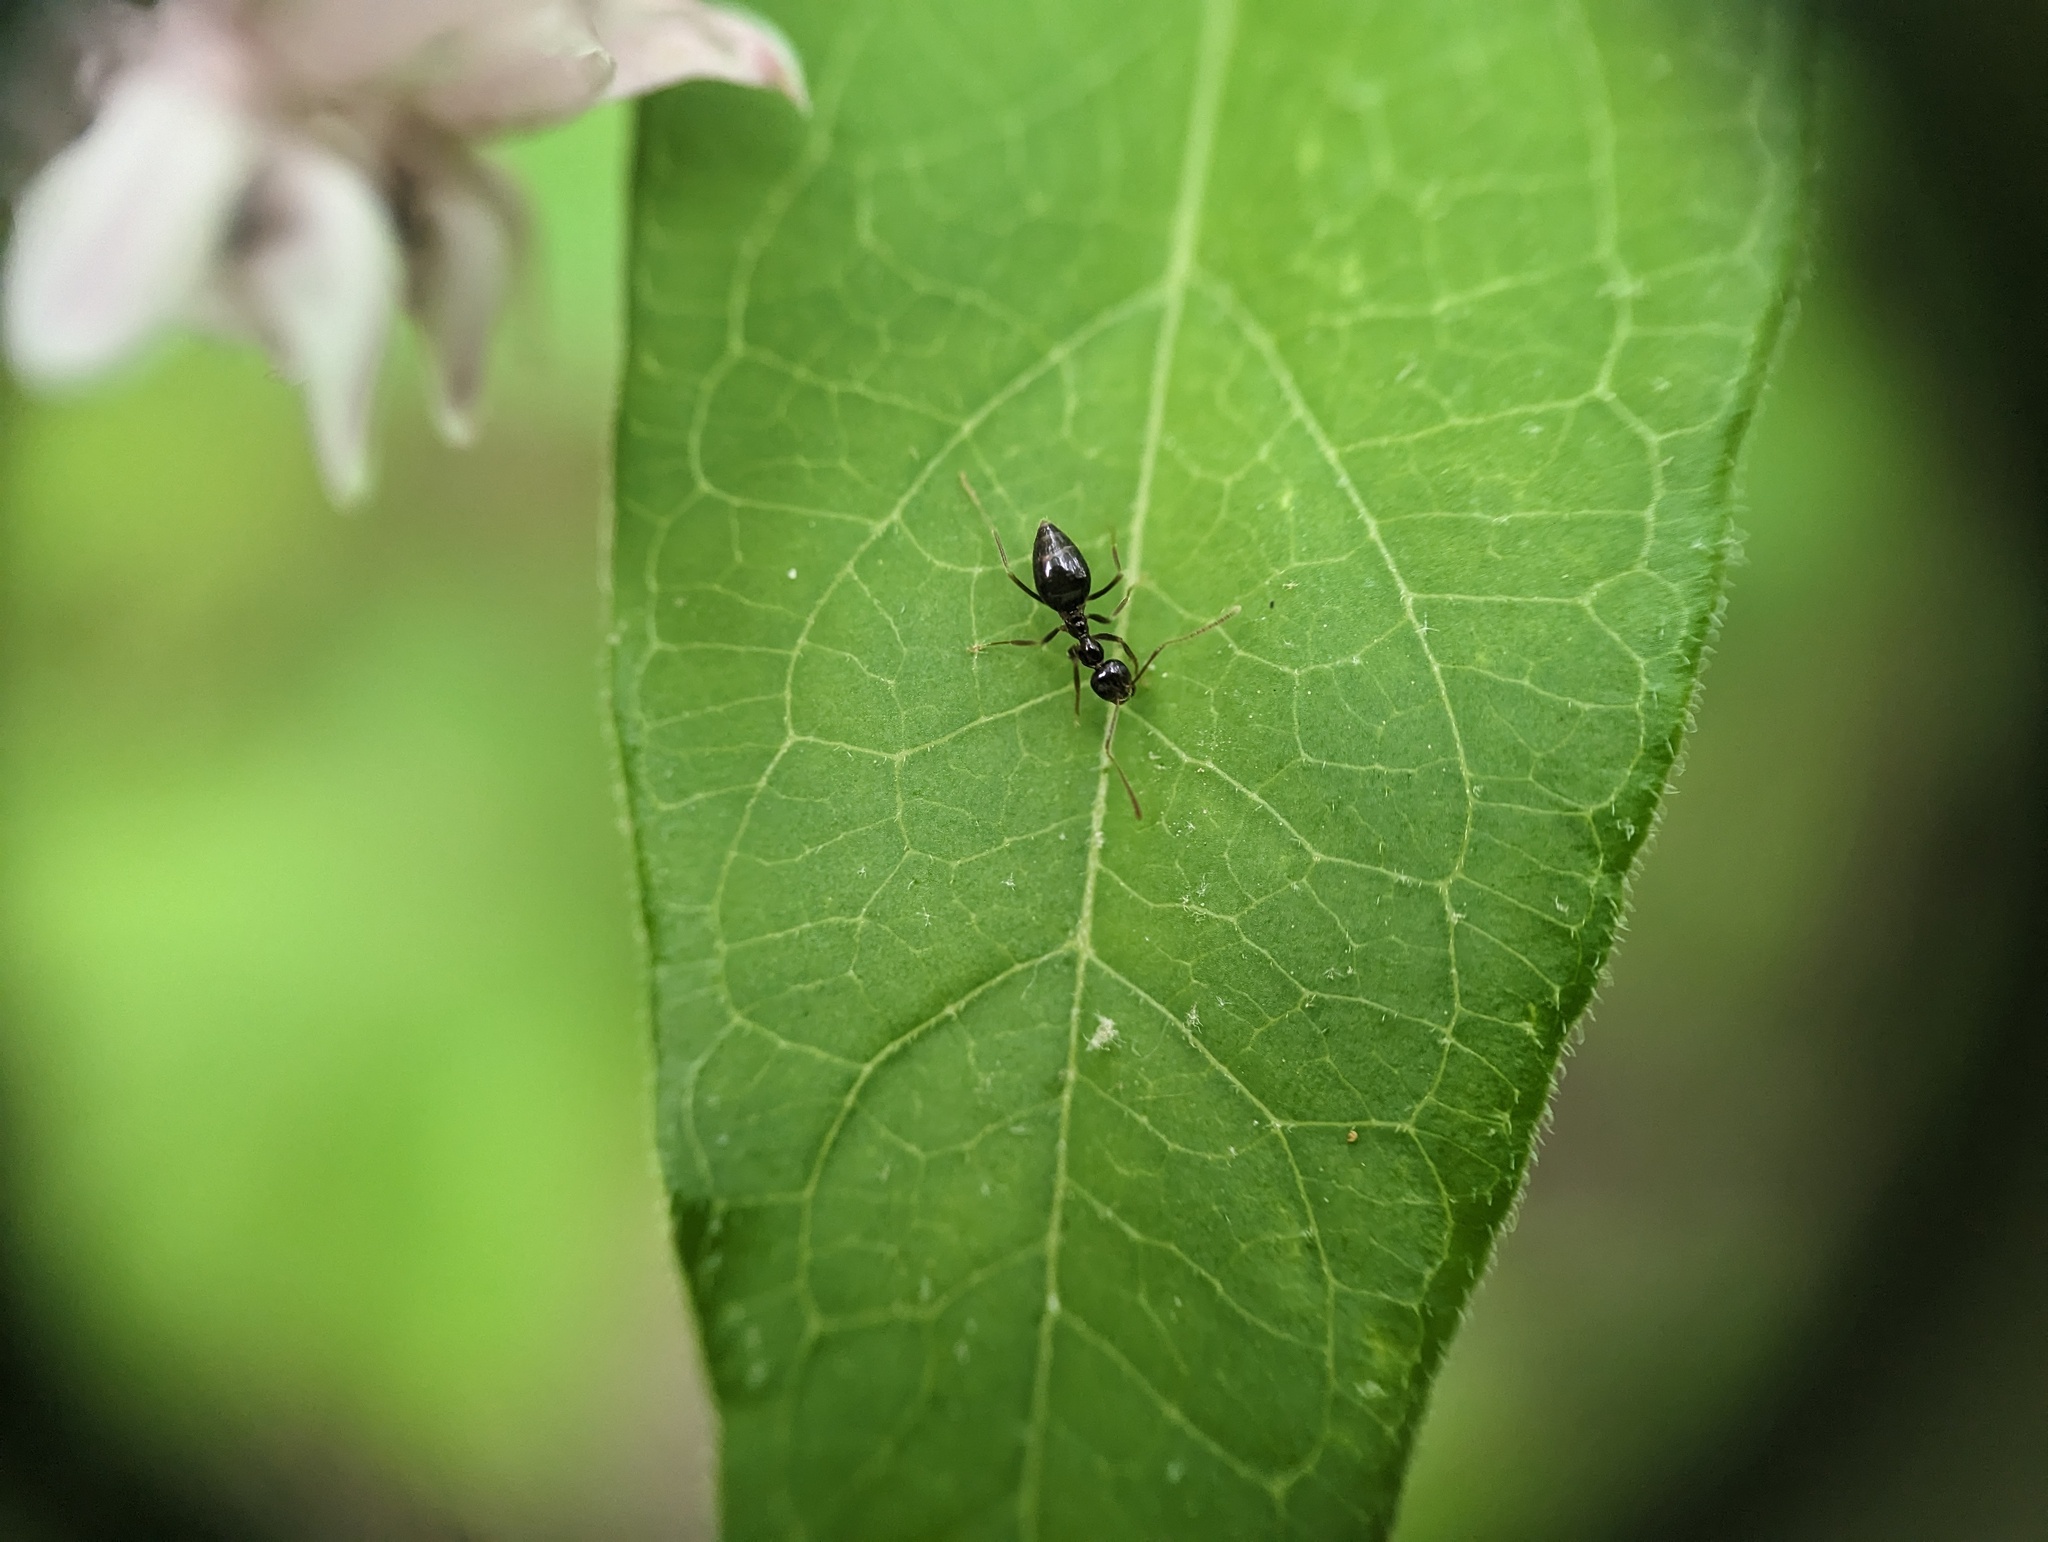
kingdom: Animalia
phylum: Arthropoda
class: Insecta
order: Hymenoptera
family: Formicidae
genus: Prenolepis
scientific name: Prenolepis imparis
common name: Small honey ant
